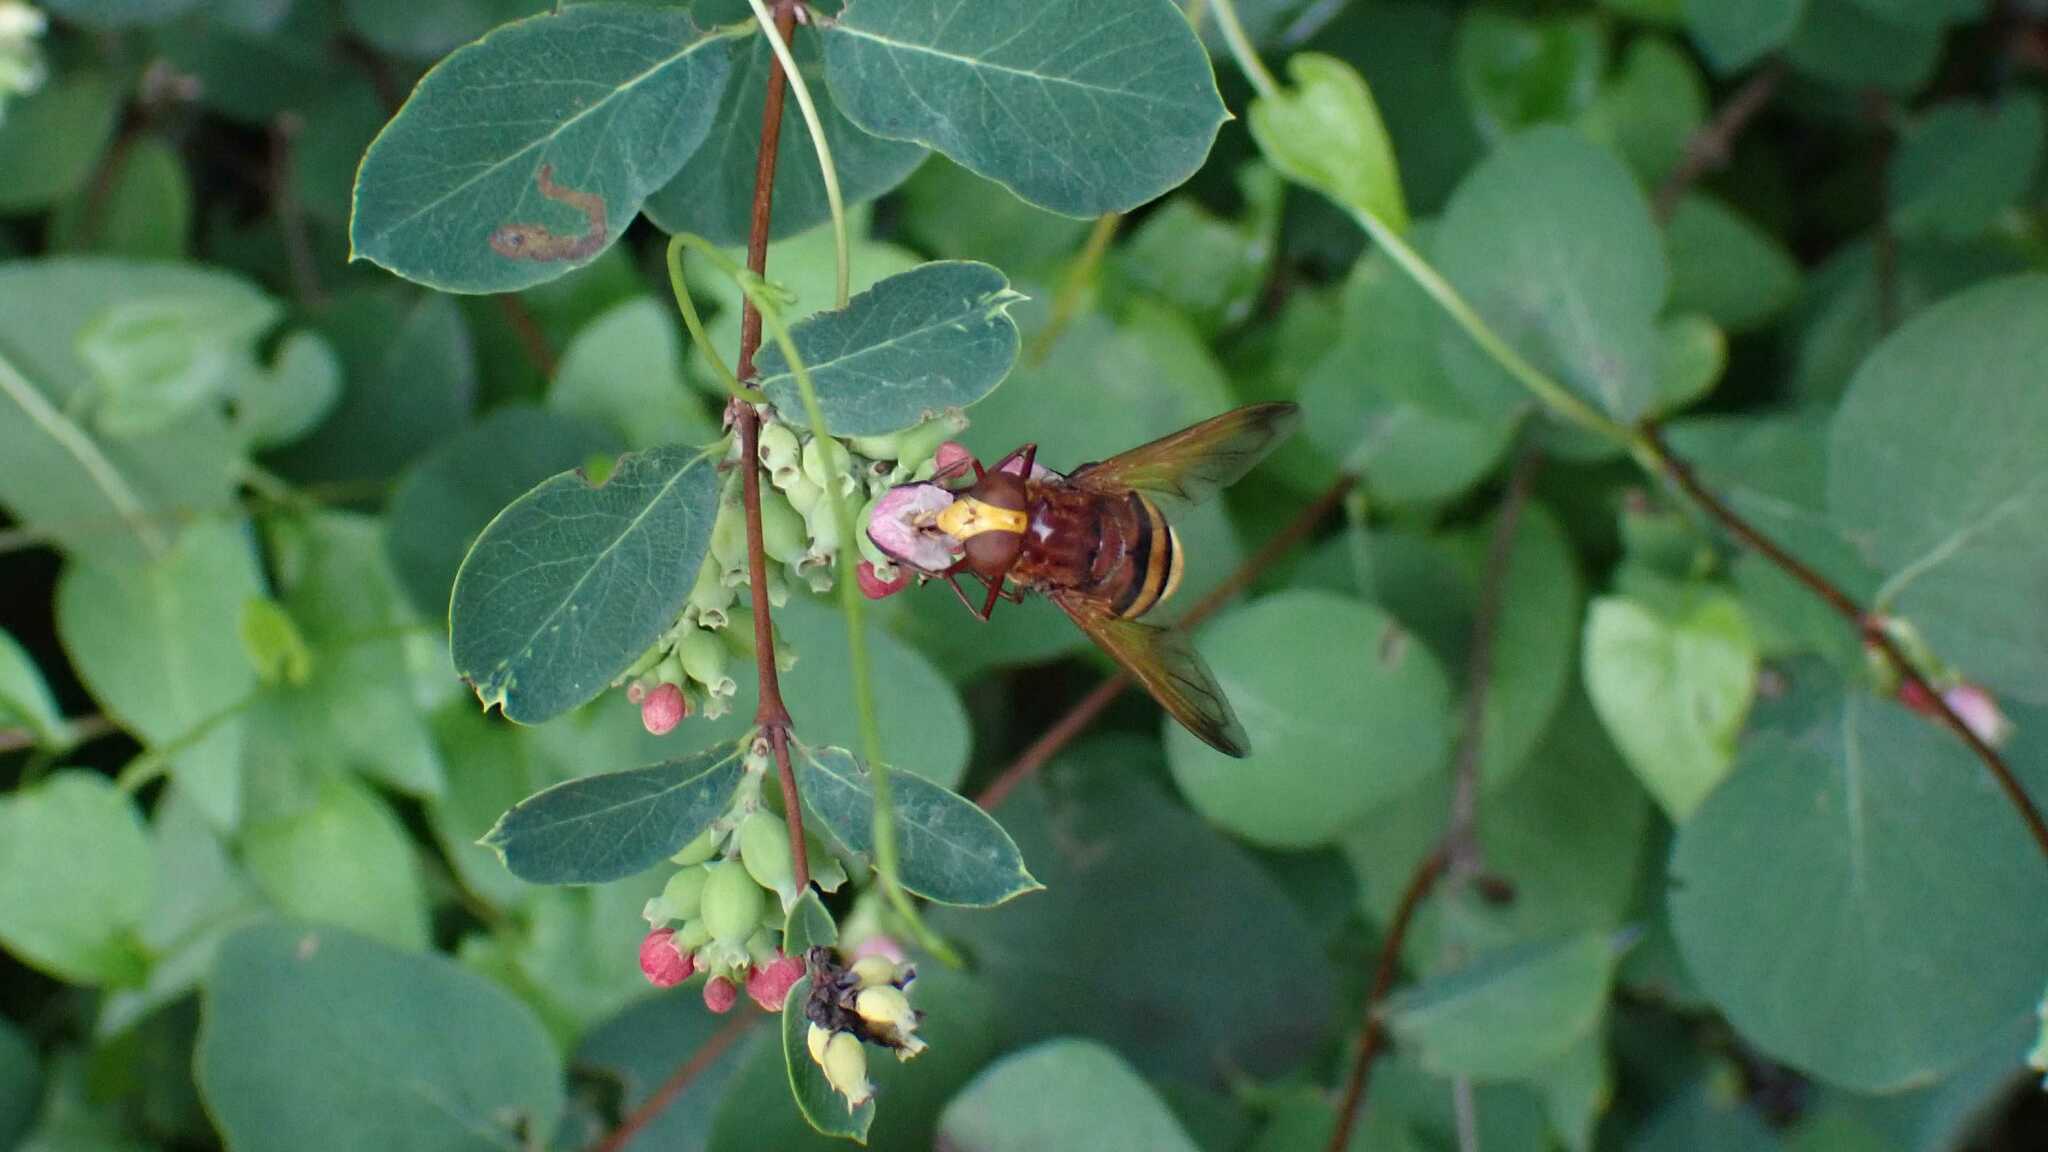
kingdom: Animalia
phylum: Arthropoda
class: Insecta
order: Diptera
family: Syrphidae
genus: Volucella
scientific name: Volucella zonaria
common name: Hornet hoverfly
